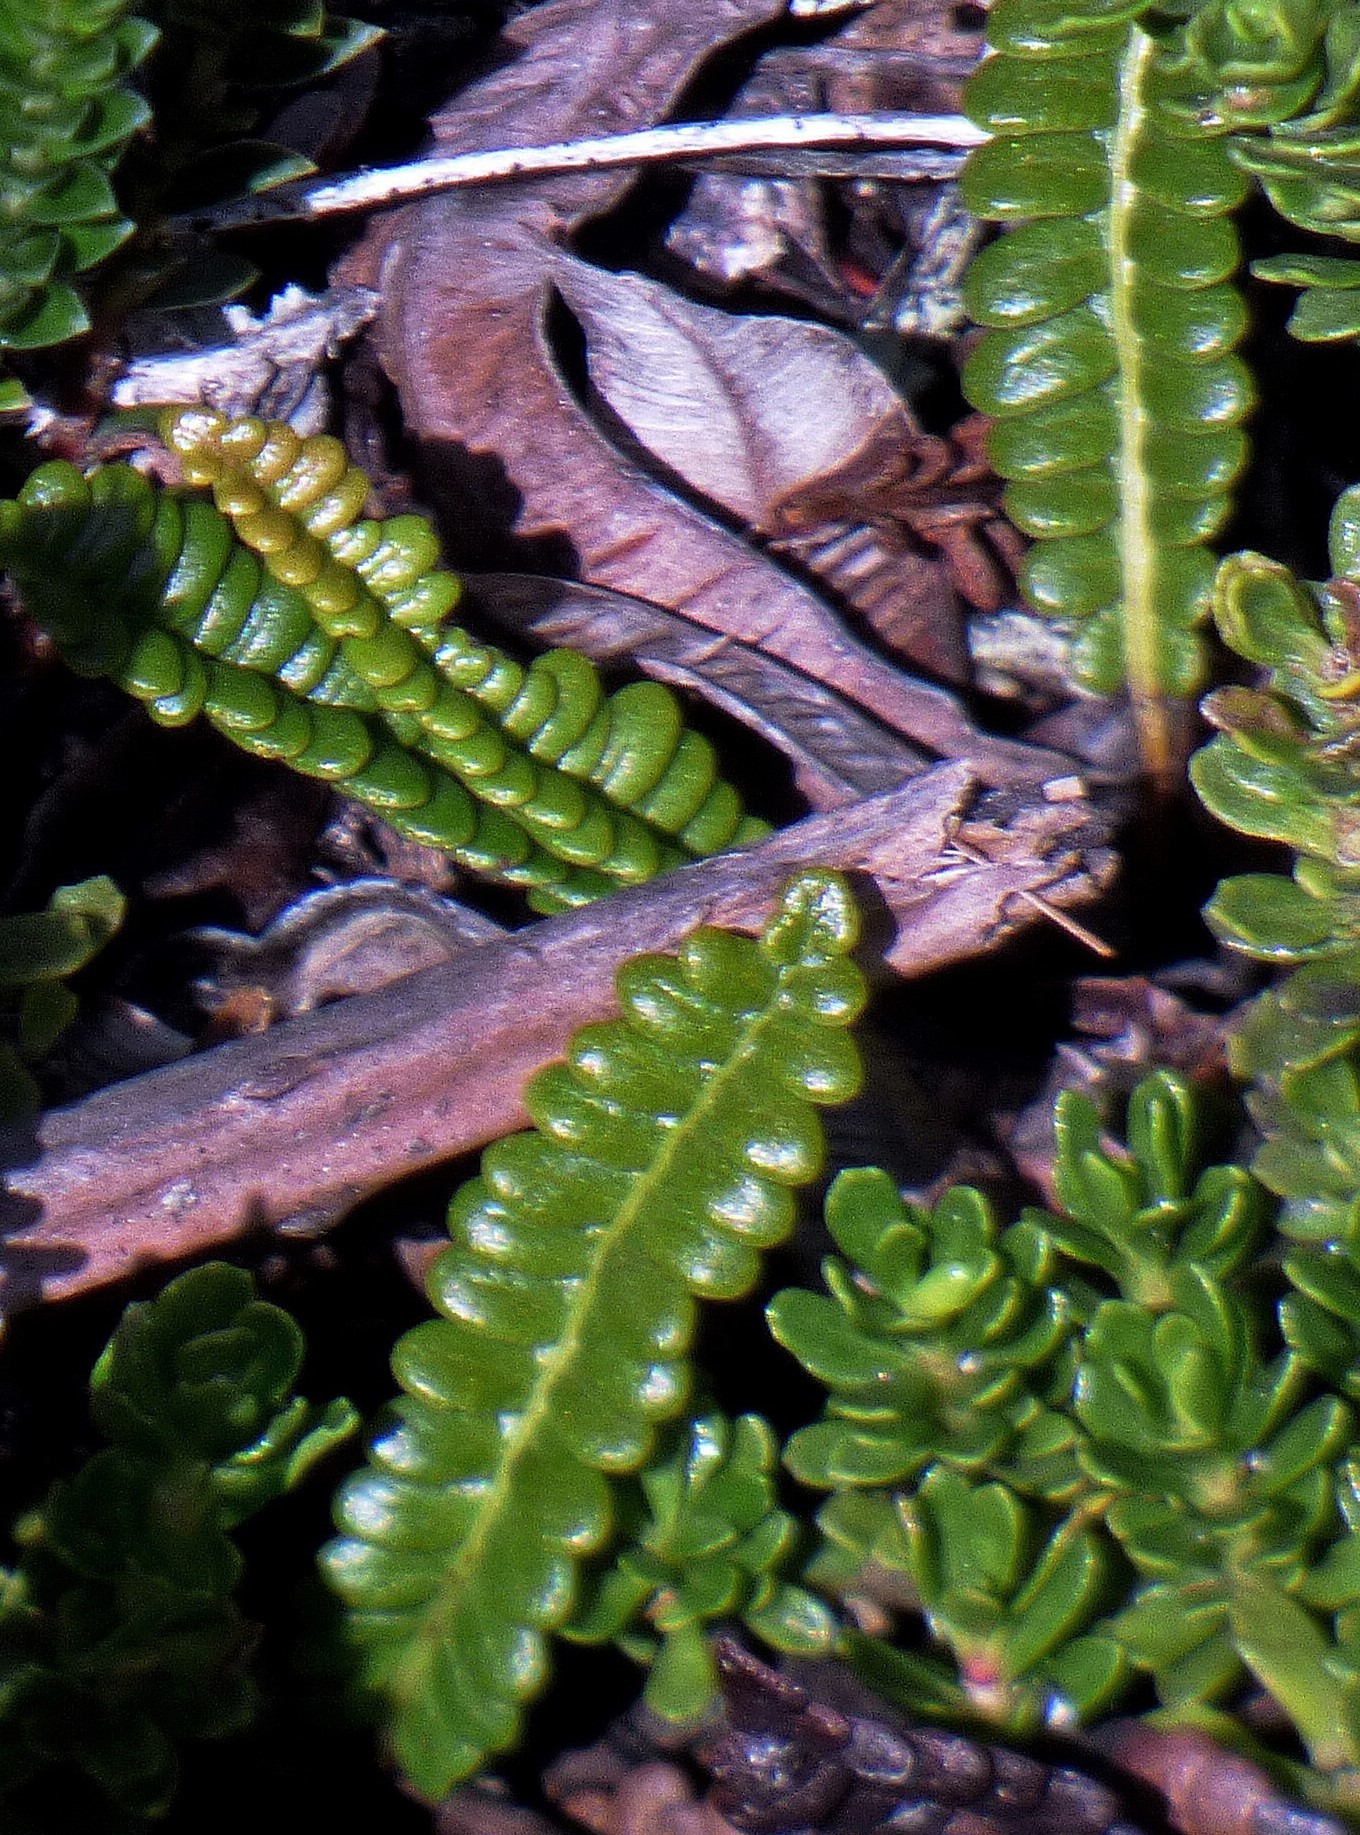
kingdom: Plantae
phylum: Tracheophyta
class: Polypodiopsida
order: Polypodiales
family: Blechnaceae
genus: Austroblechnum
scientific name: Austroblechnum penna-marina
